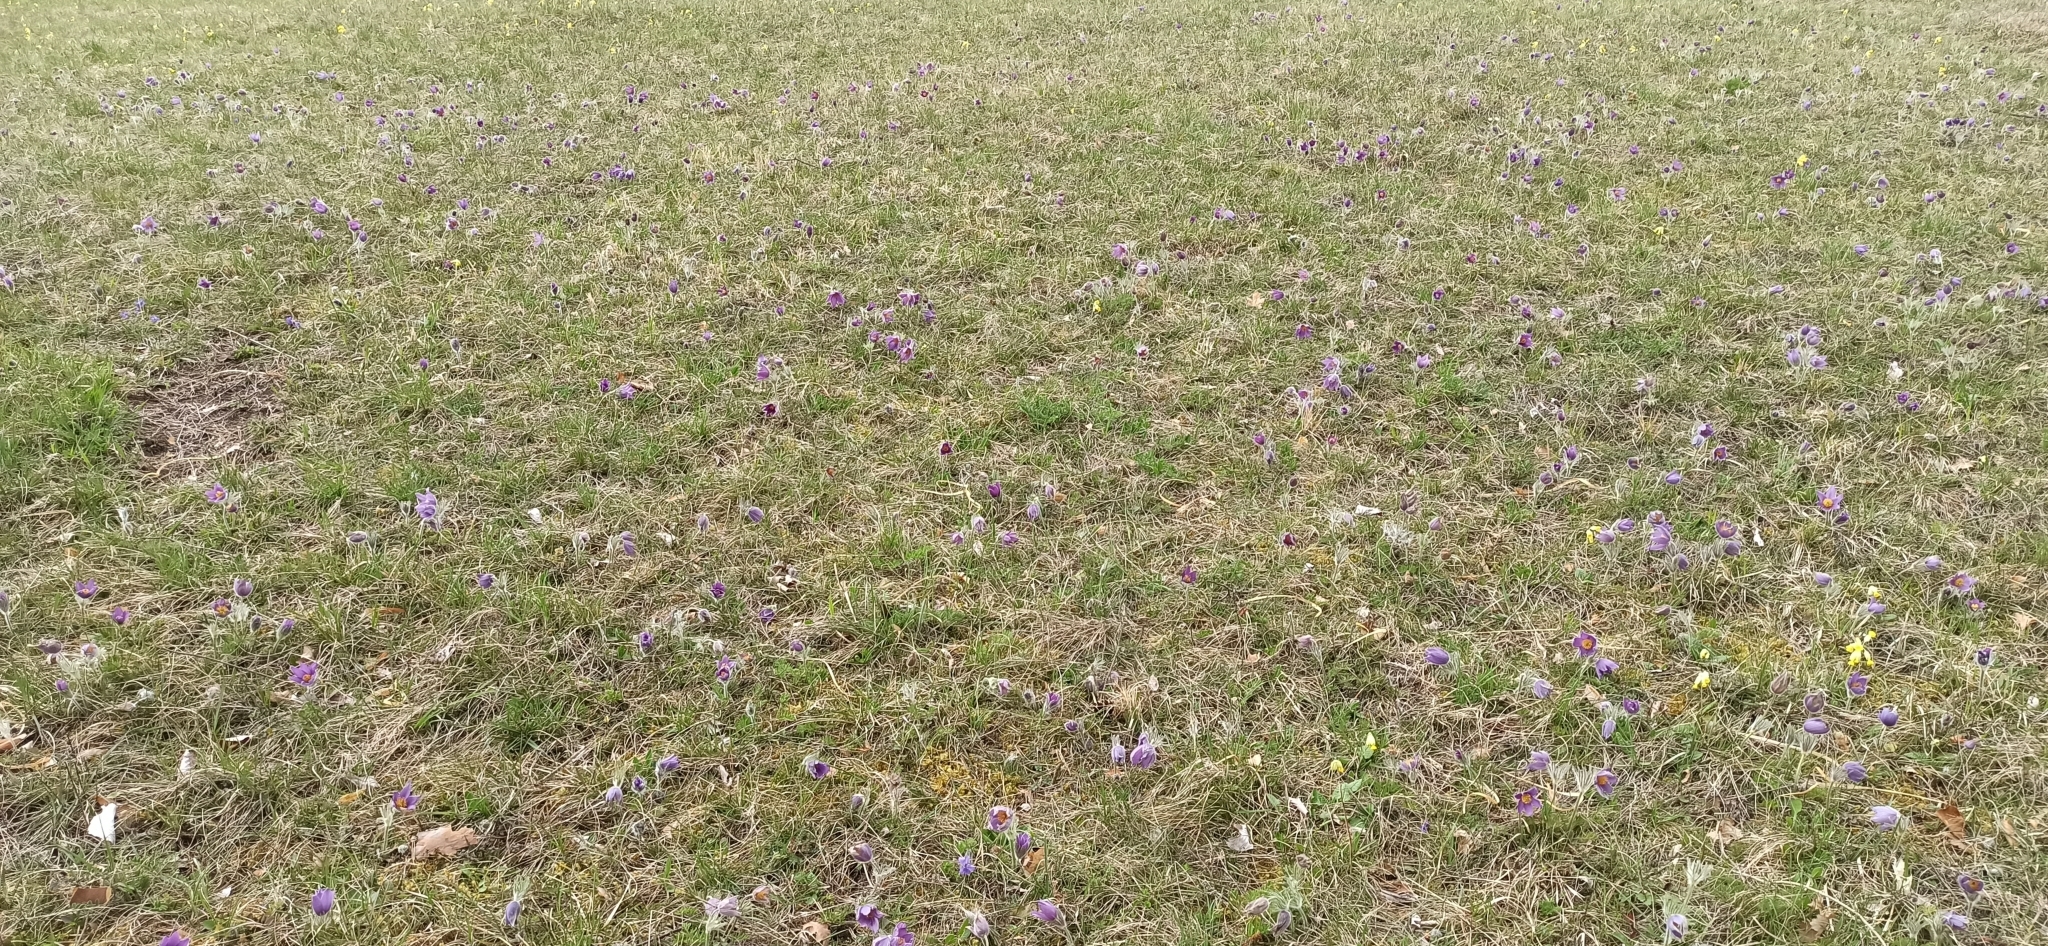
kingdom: Plantae
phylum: Tracheophyta
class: Magnoliopsida
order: Ranunculales
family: Ranunculaceae
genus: Pulsatilla
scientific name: Pulsatilla vulgaris
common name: Pasqueflower
